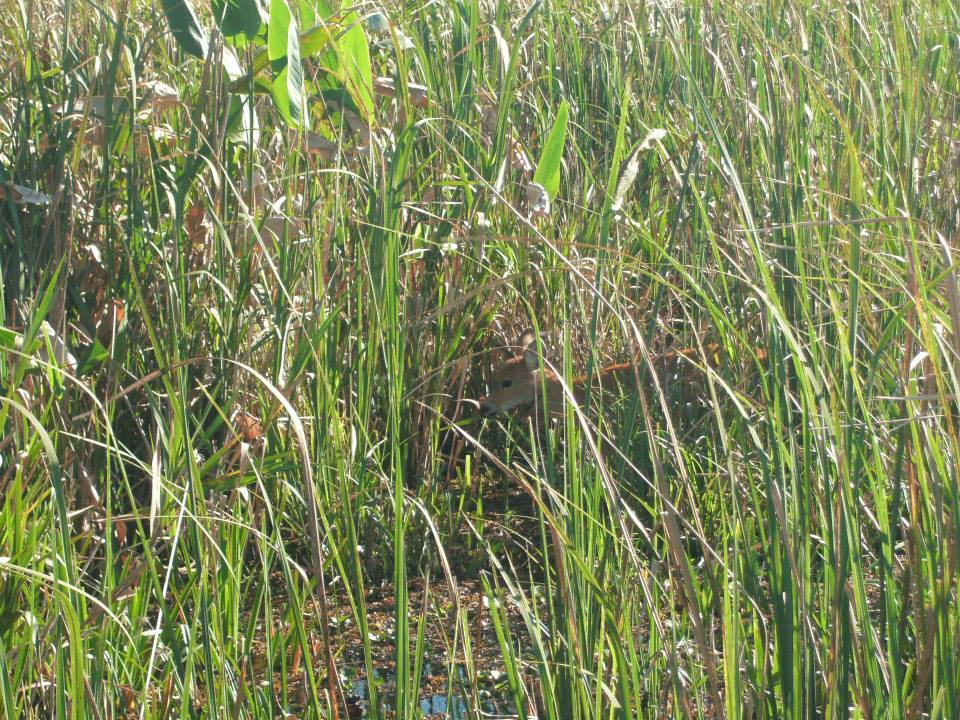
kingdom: Animalia
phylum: Chordata
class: Mammalia
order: Artiodactyla
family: Cervidae
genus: Blastocerus
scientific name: Blastocerus dichotomus
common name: Marsh deer
